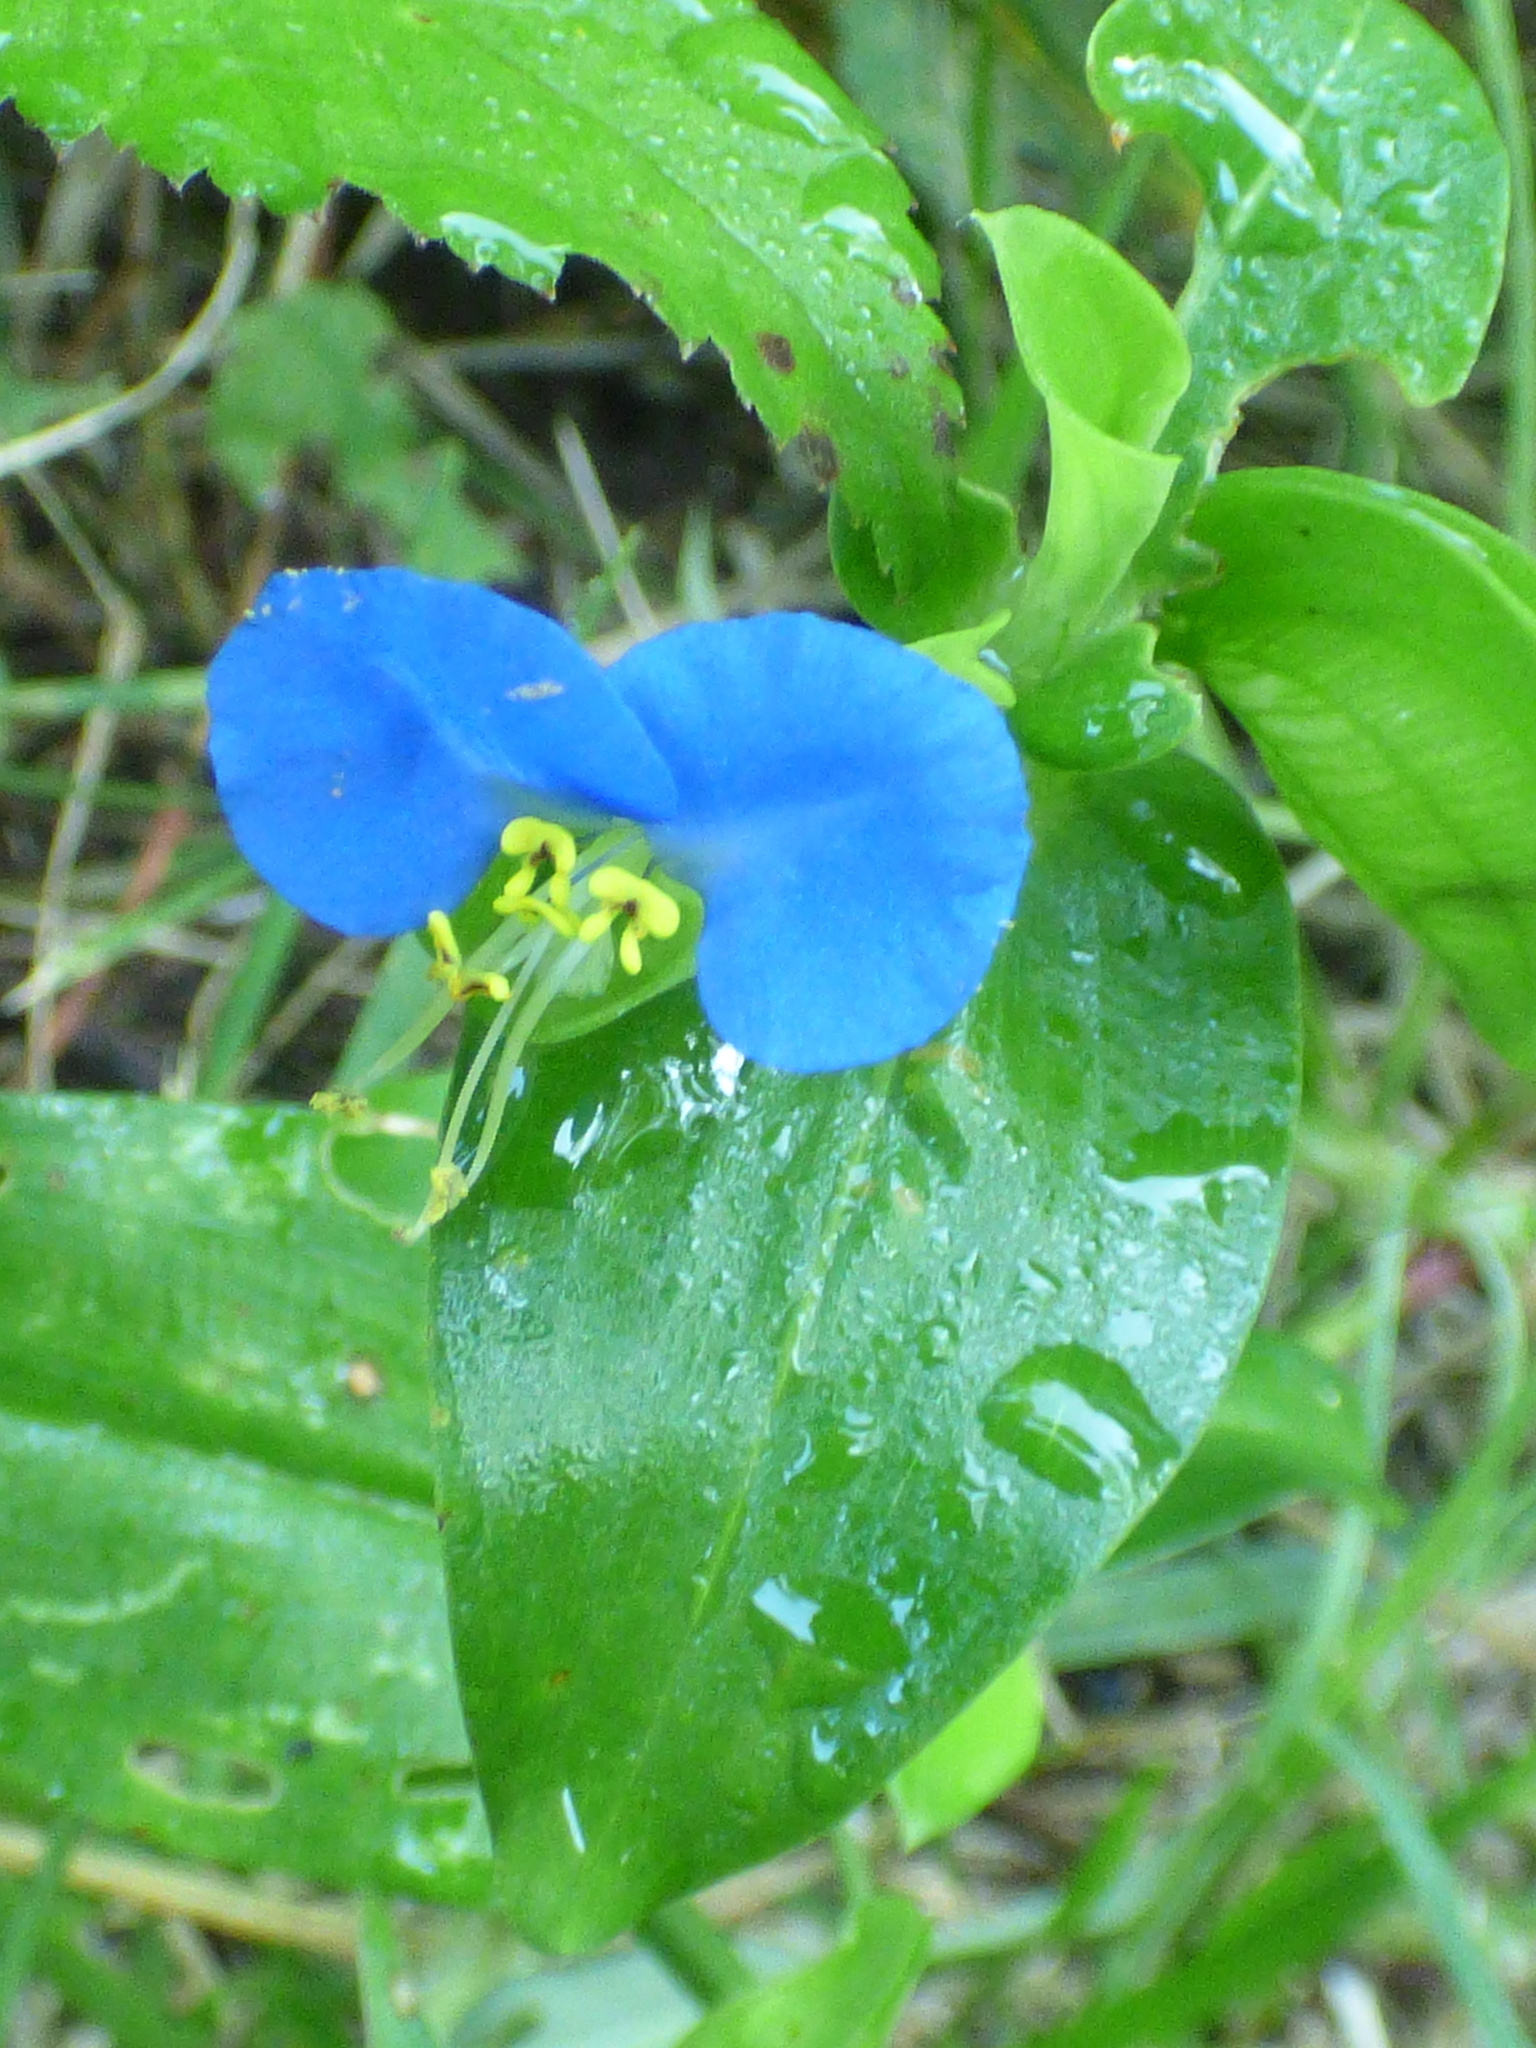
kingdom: Plantae
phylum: Tracheophyta
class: Liliopsida
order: Commelinales
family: Commelinaceae
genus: Commelina
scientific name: Commelina communis
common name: Asiatic dayflower
